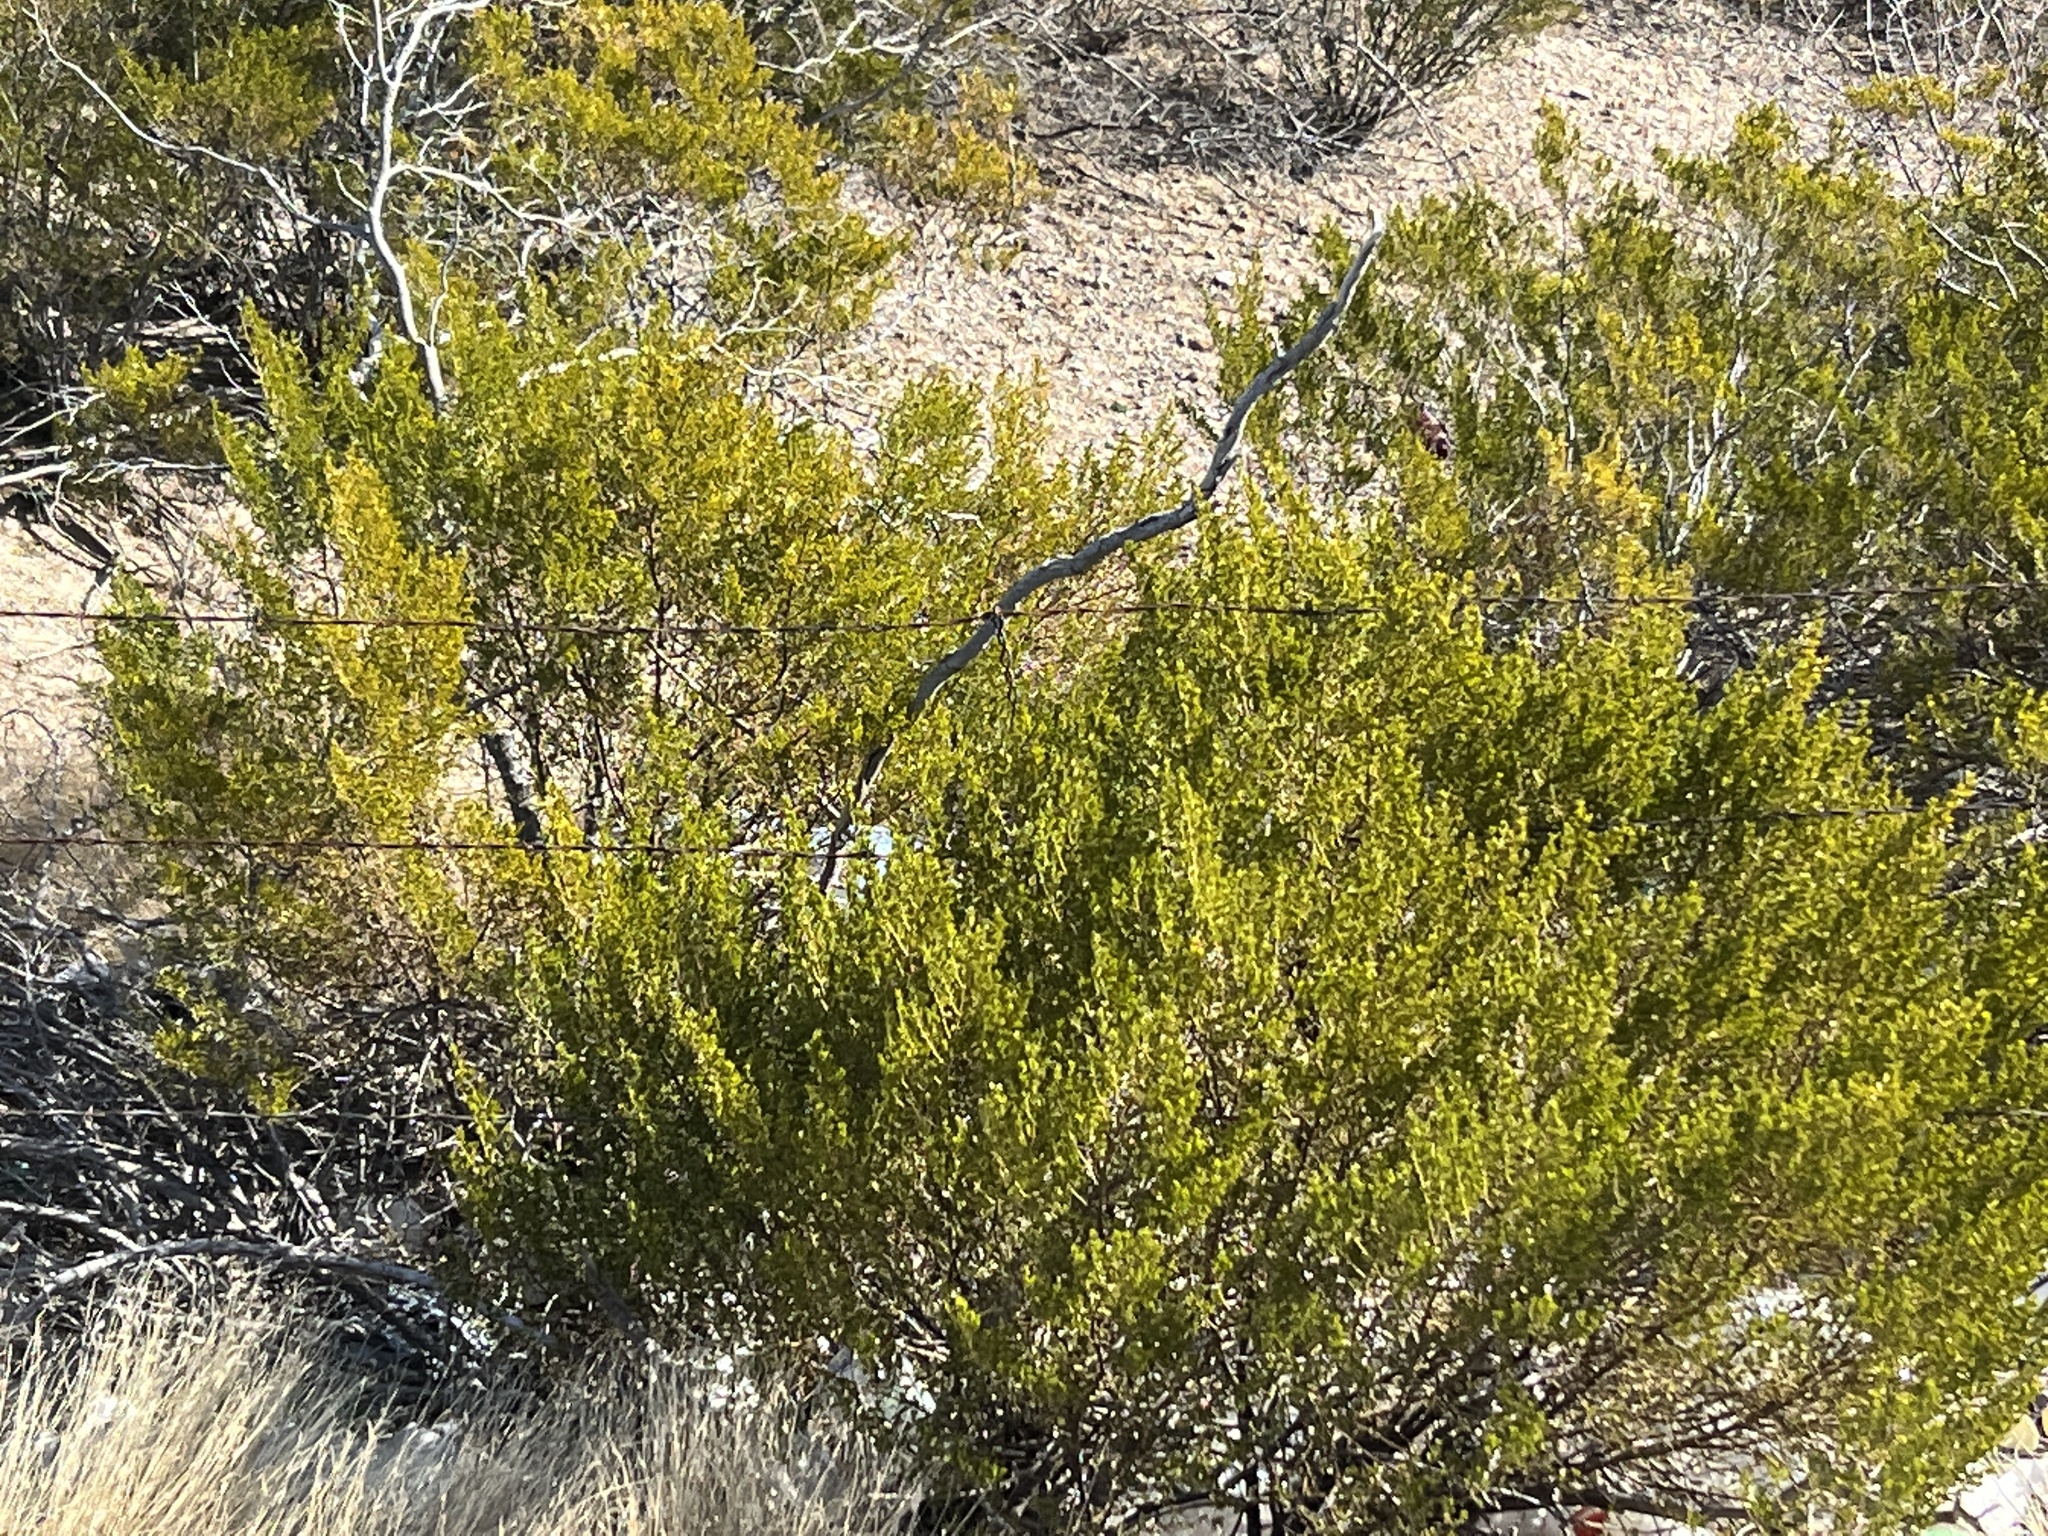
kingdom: Plantae
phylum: Tracheophyta
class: Magnoliopsida
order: Zygophyllales
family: Zygophyllaceae
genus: Larrea
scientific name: Larrea tridentata
